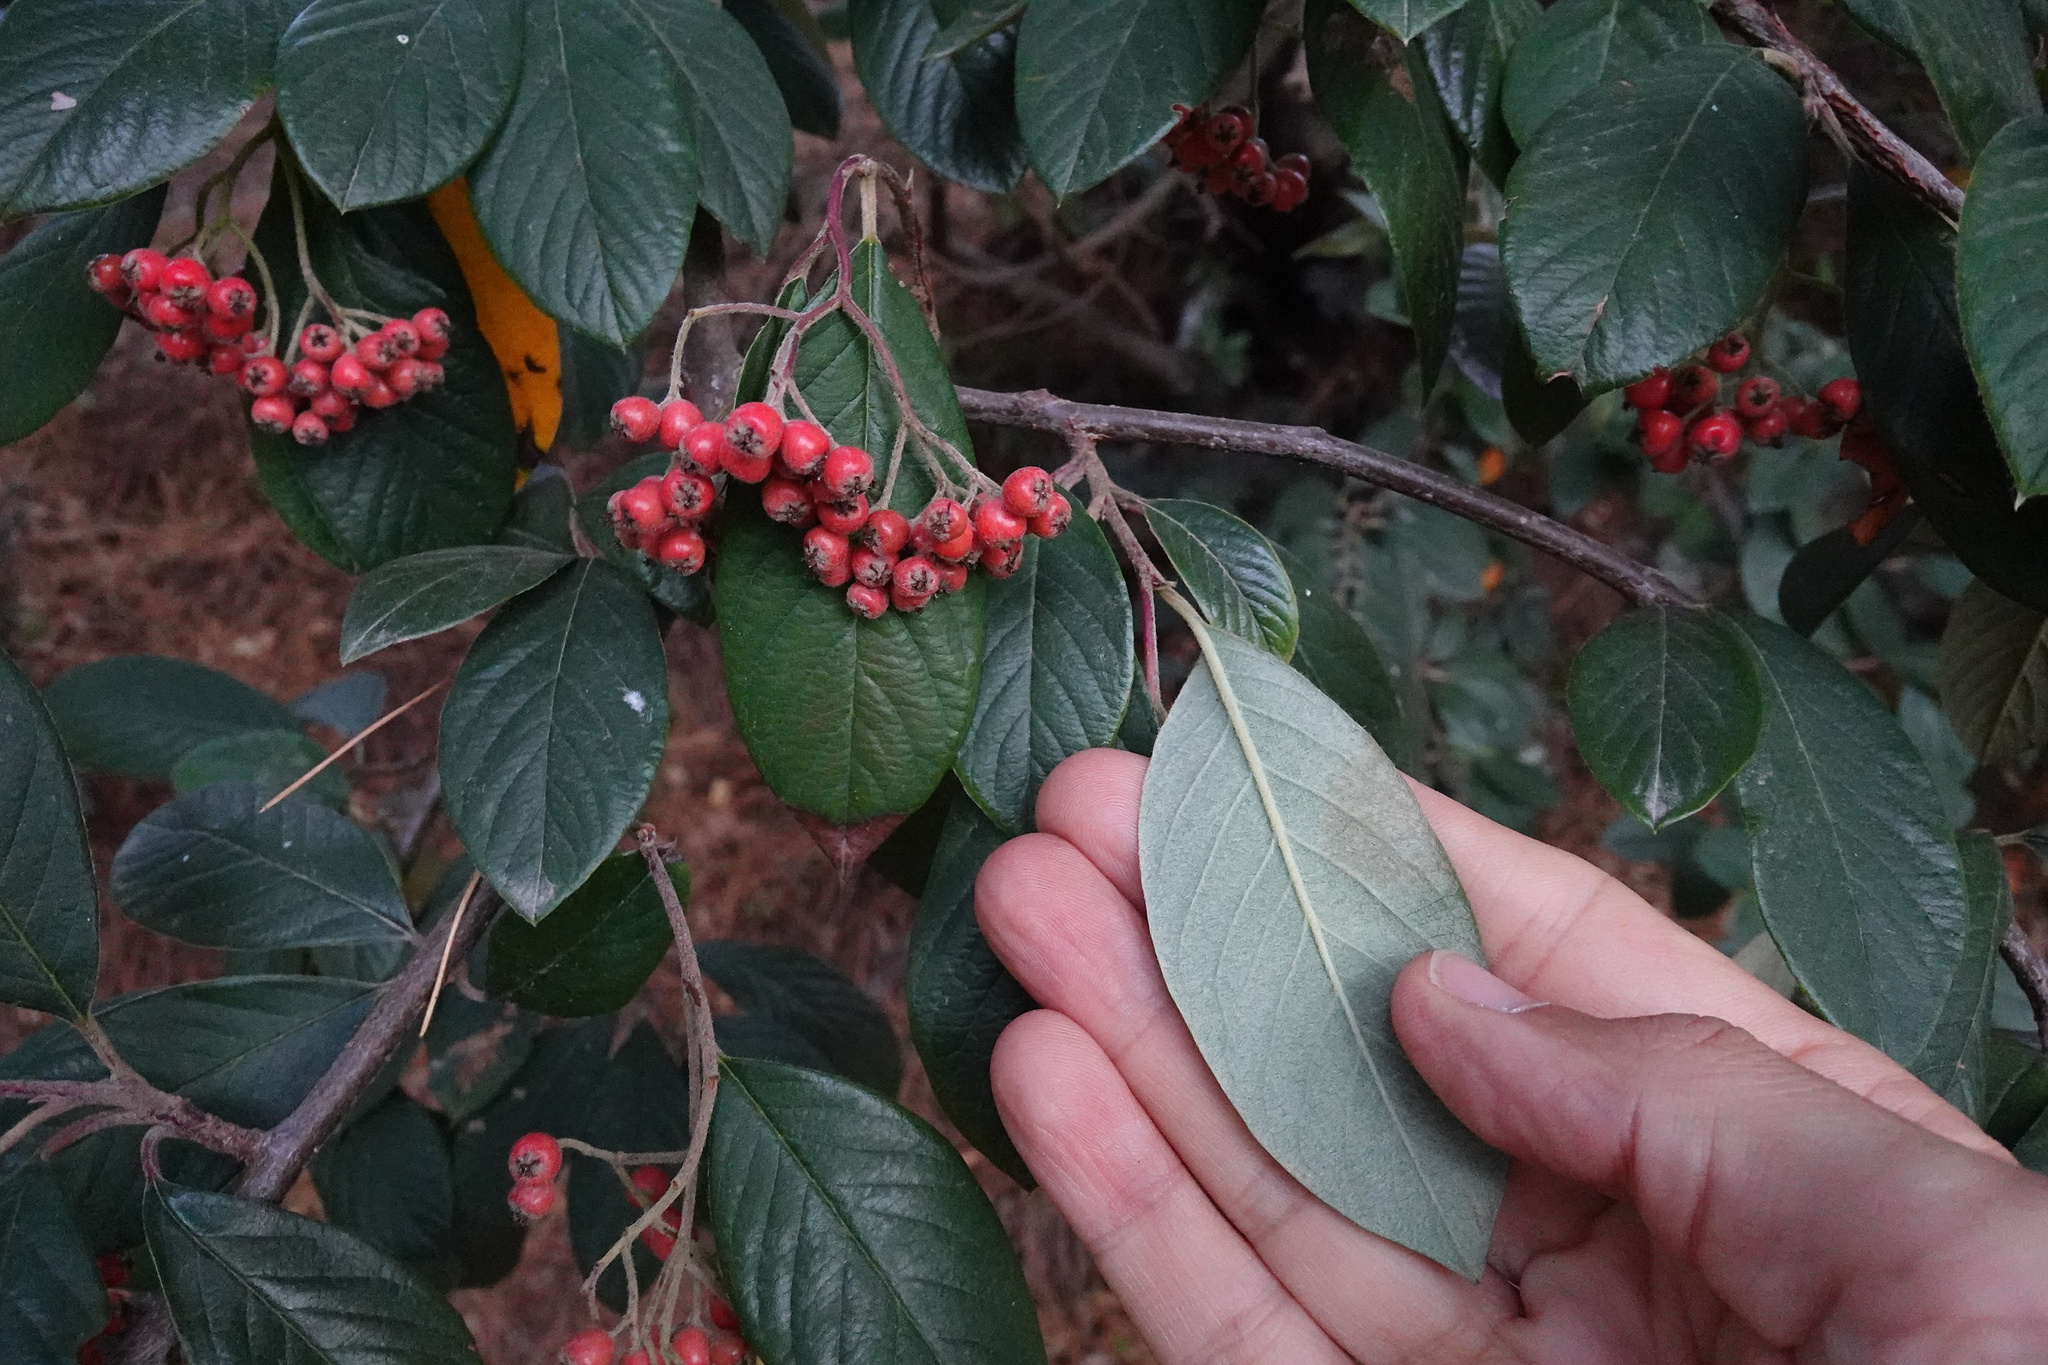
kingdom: Plantae
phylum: Tracheophyta
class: Magnoliopsida
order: Rosales
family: Rosaceae
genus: Cotoneaster
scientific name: Cotoneaster coriaceus
